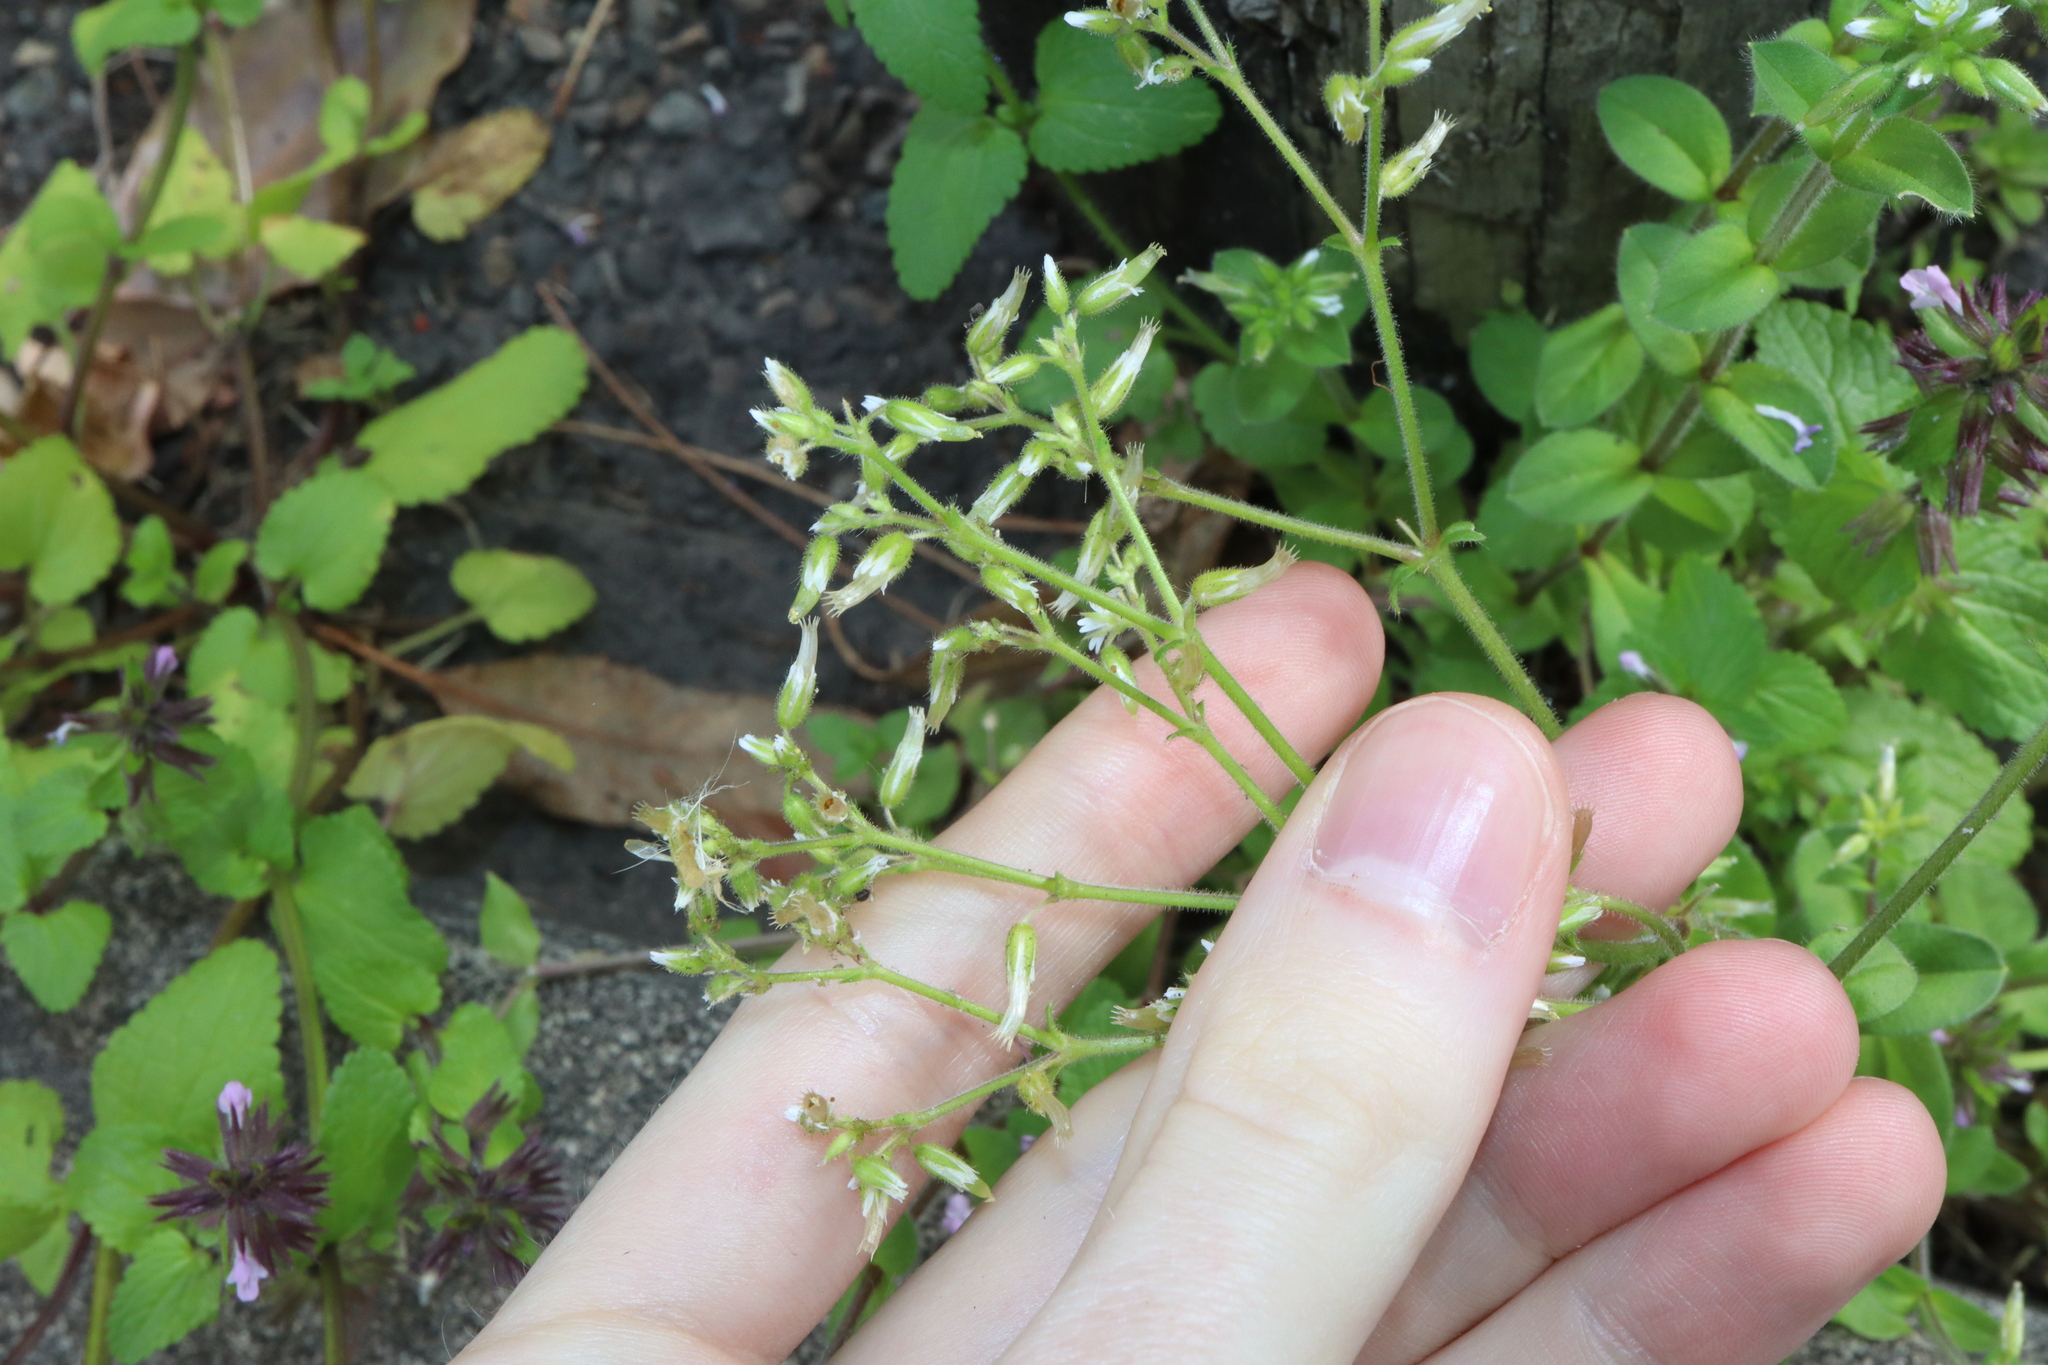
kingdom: Plantae
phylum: Tracheophyta
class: Magnoliopsida
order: Caryophyllales
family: Caryophyllaceae
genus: Cerastium
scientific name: Cerastium glomeratum
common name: Sticky chickweed
